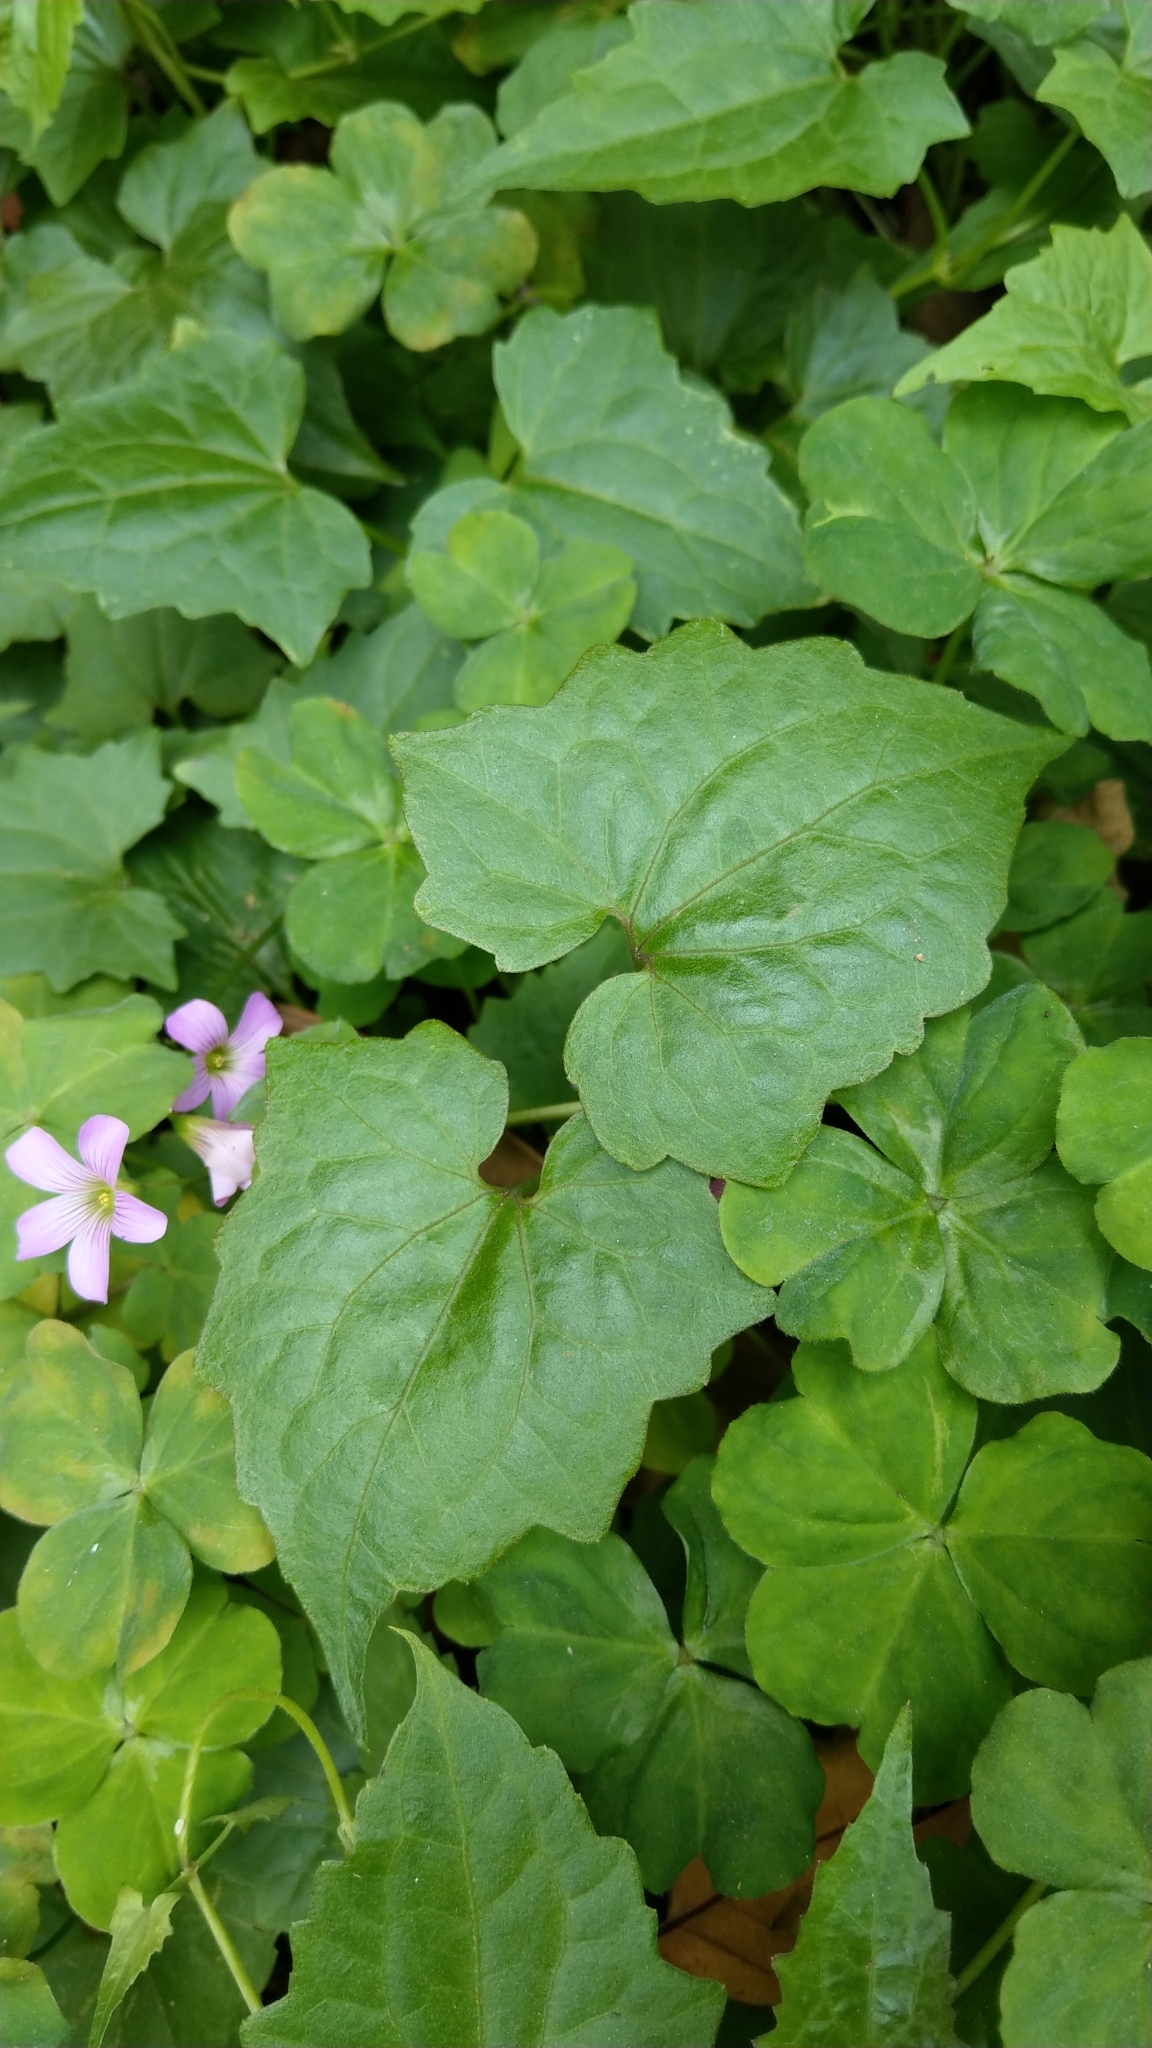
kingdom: Plantae
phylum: Tracheophyta
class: Magnoliopsida
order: Asterales
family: Asteraceae
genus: Mikania
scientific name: Mikania micrantha
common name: Mile-a-minute
